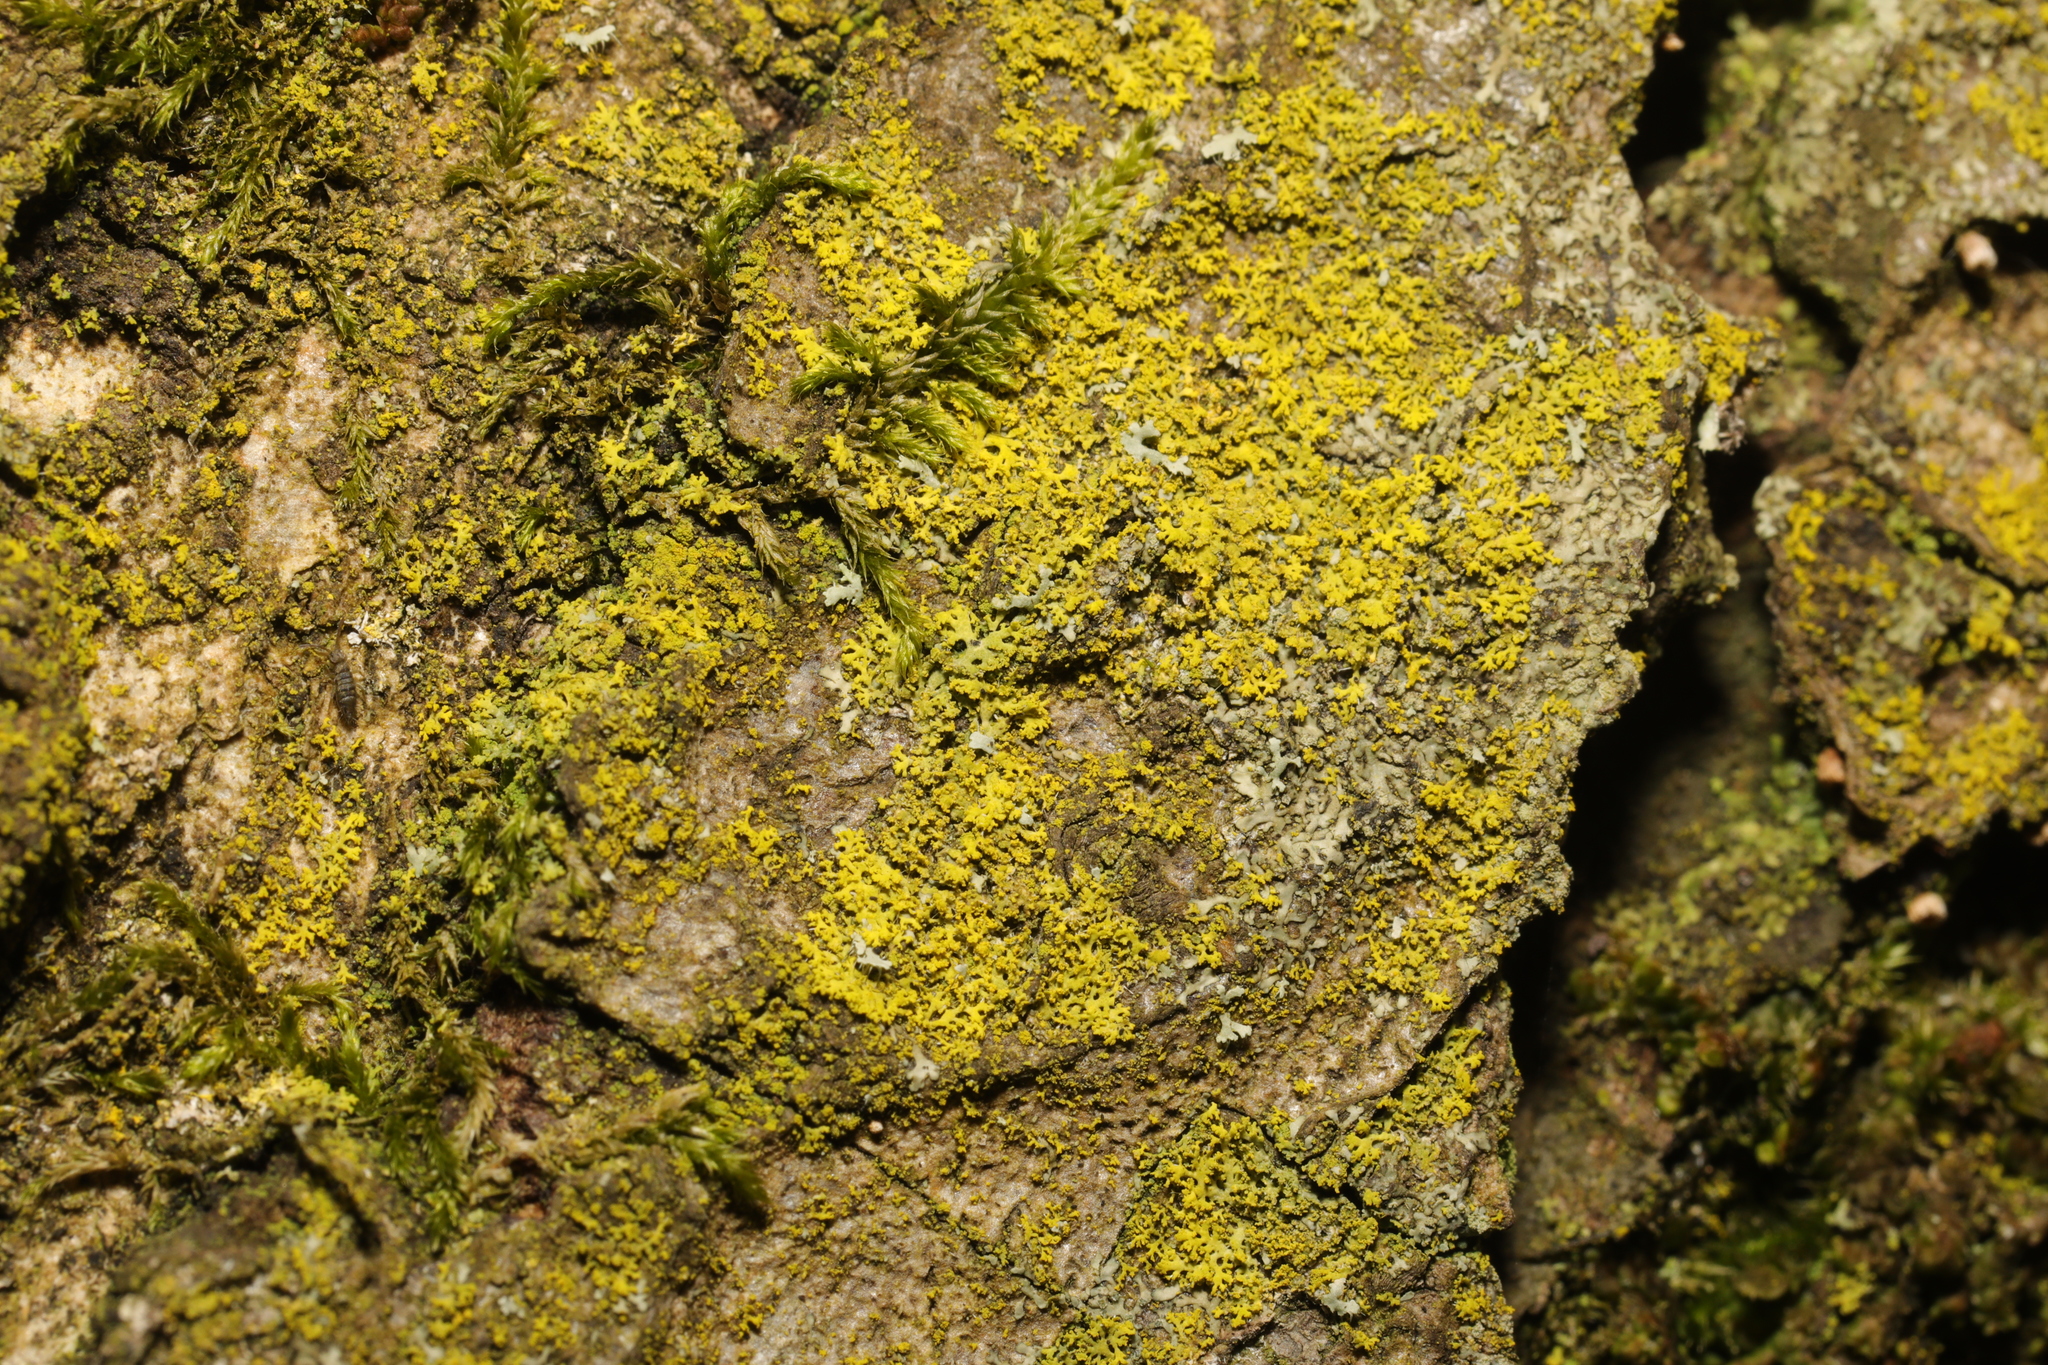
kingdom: Fungi
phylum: Ascomycota
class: Candelariomycetes
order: Candelariales
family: Candelariaceae
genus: Candelaria
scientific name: Candelaria concolor
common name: Candleflame lichen
